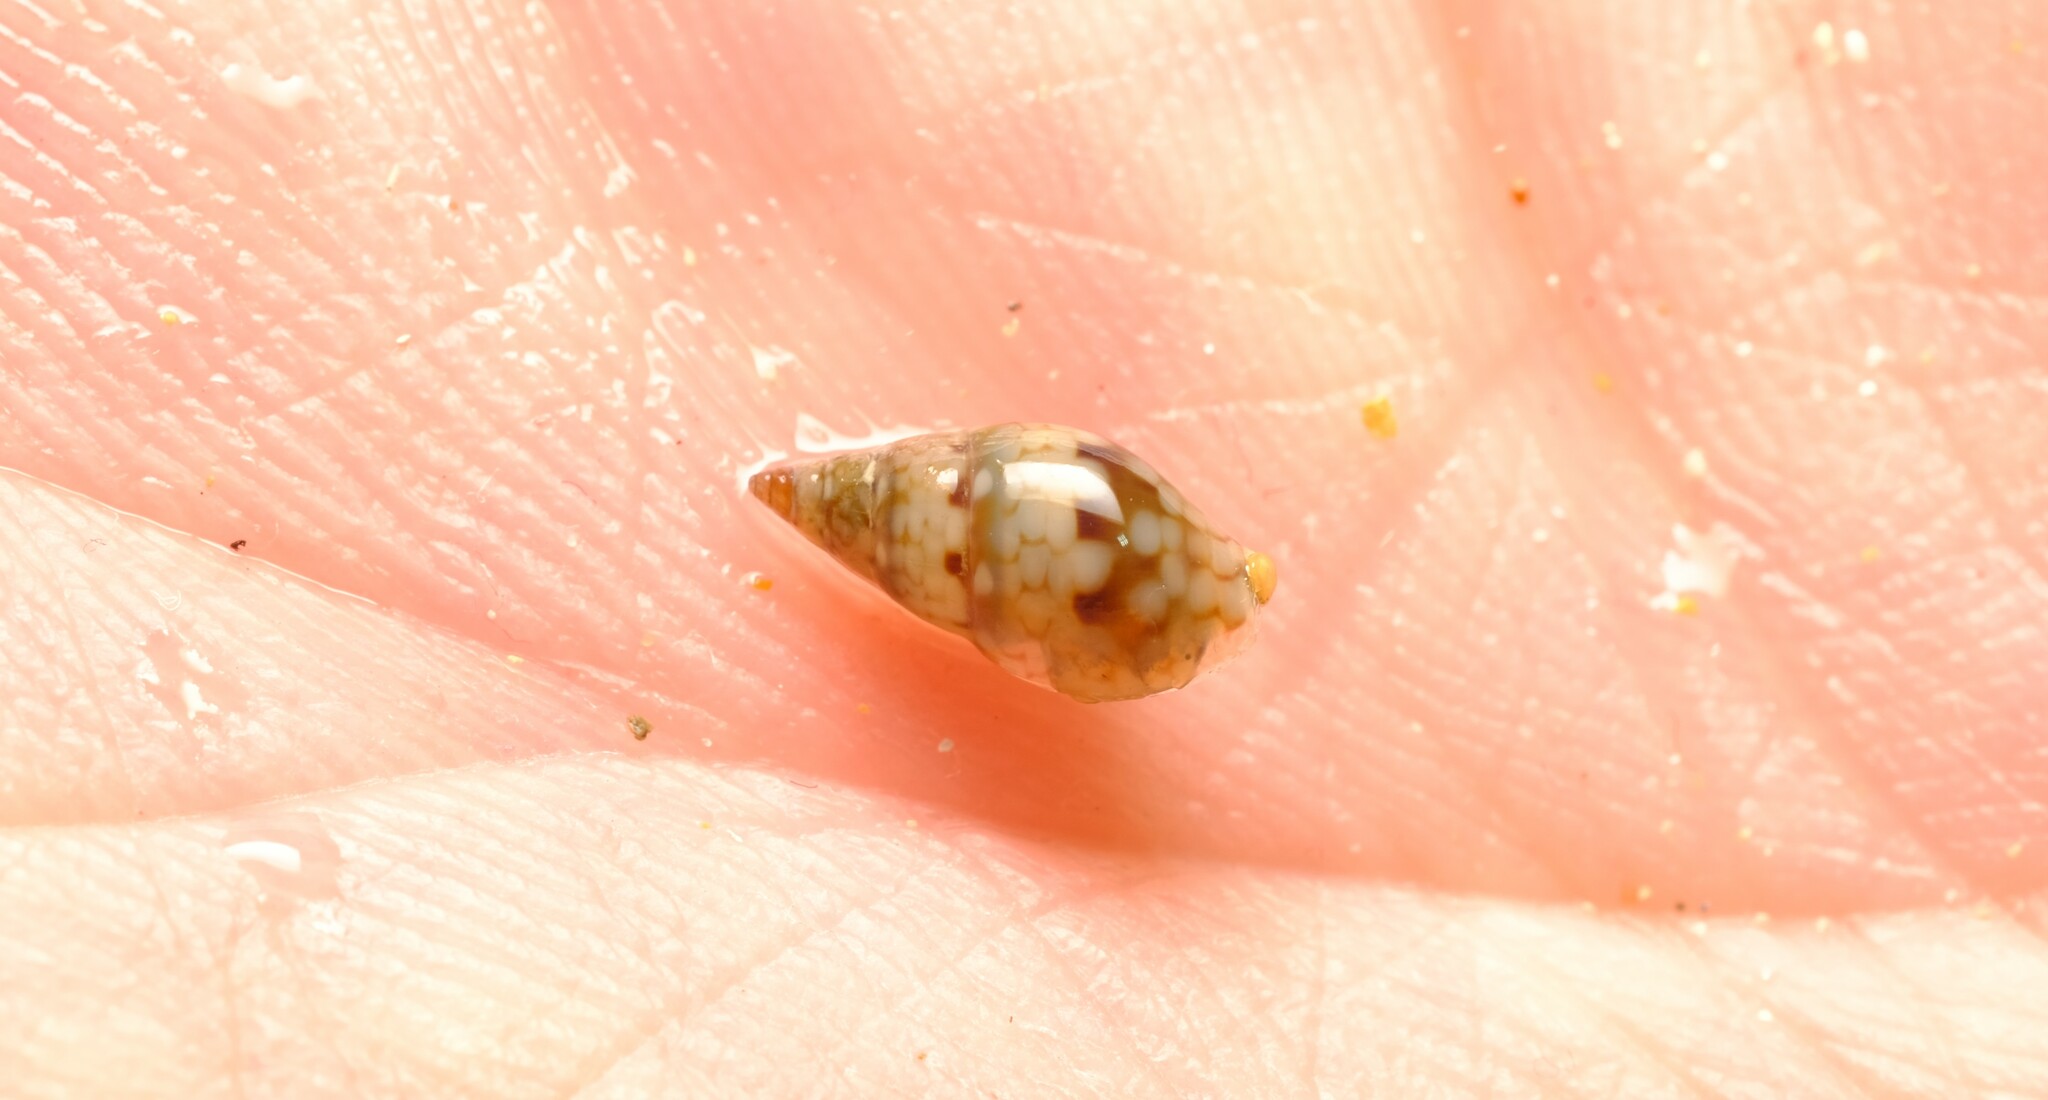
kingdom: Animalia
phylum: Mollusca
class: Gastropoda
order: Neogastropoda
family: Columbellidae
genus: Pseudamycla
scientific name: Pseudamycla dermestoidea
